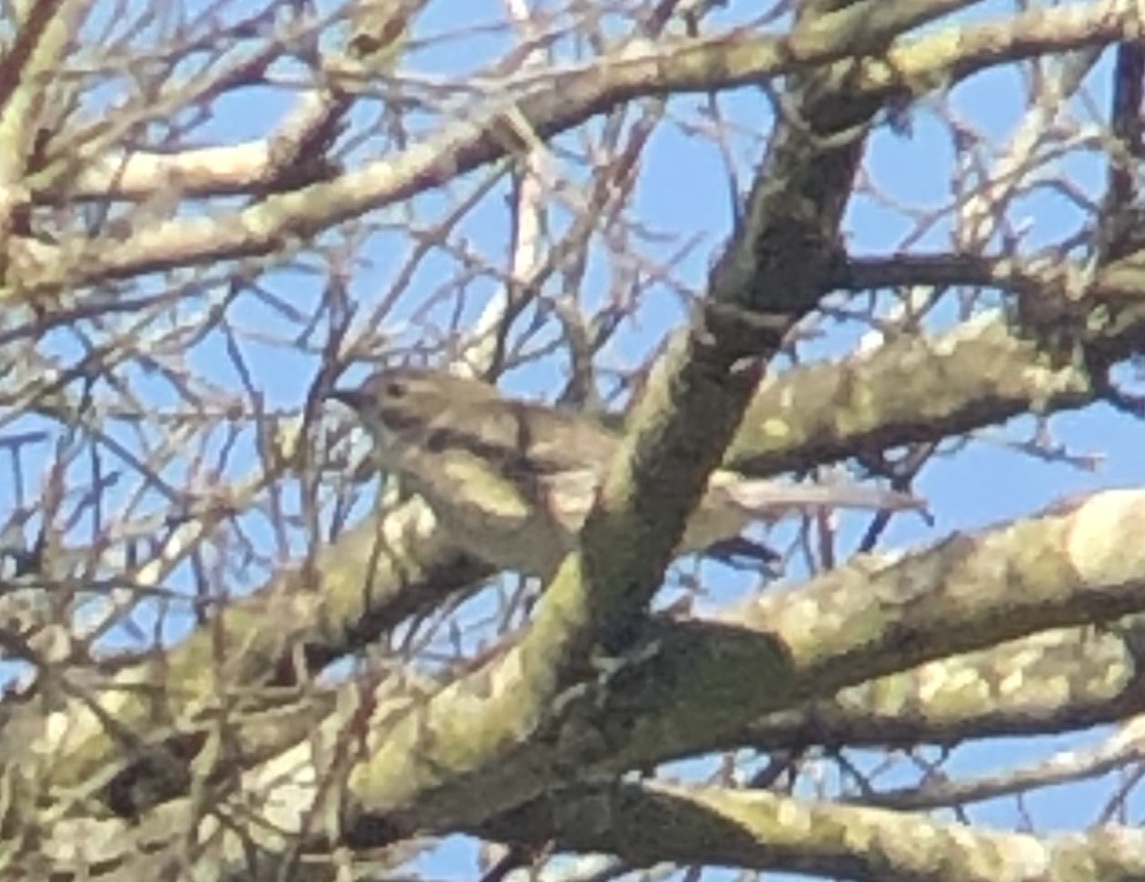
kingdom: Animalia
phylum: Chordata
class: Aves
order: Passeriformes
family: Parulidae
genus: Setophaga
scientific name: Setophaga coronata
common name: Myrtle warbler
